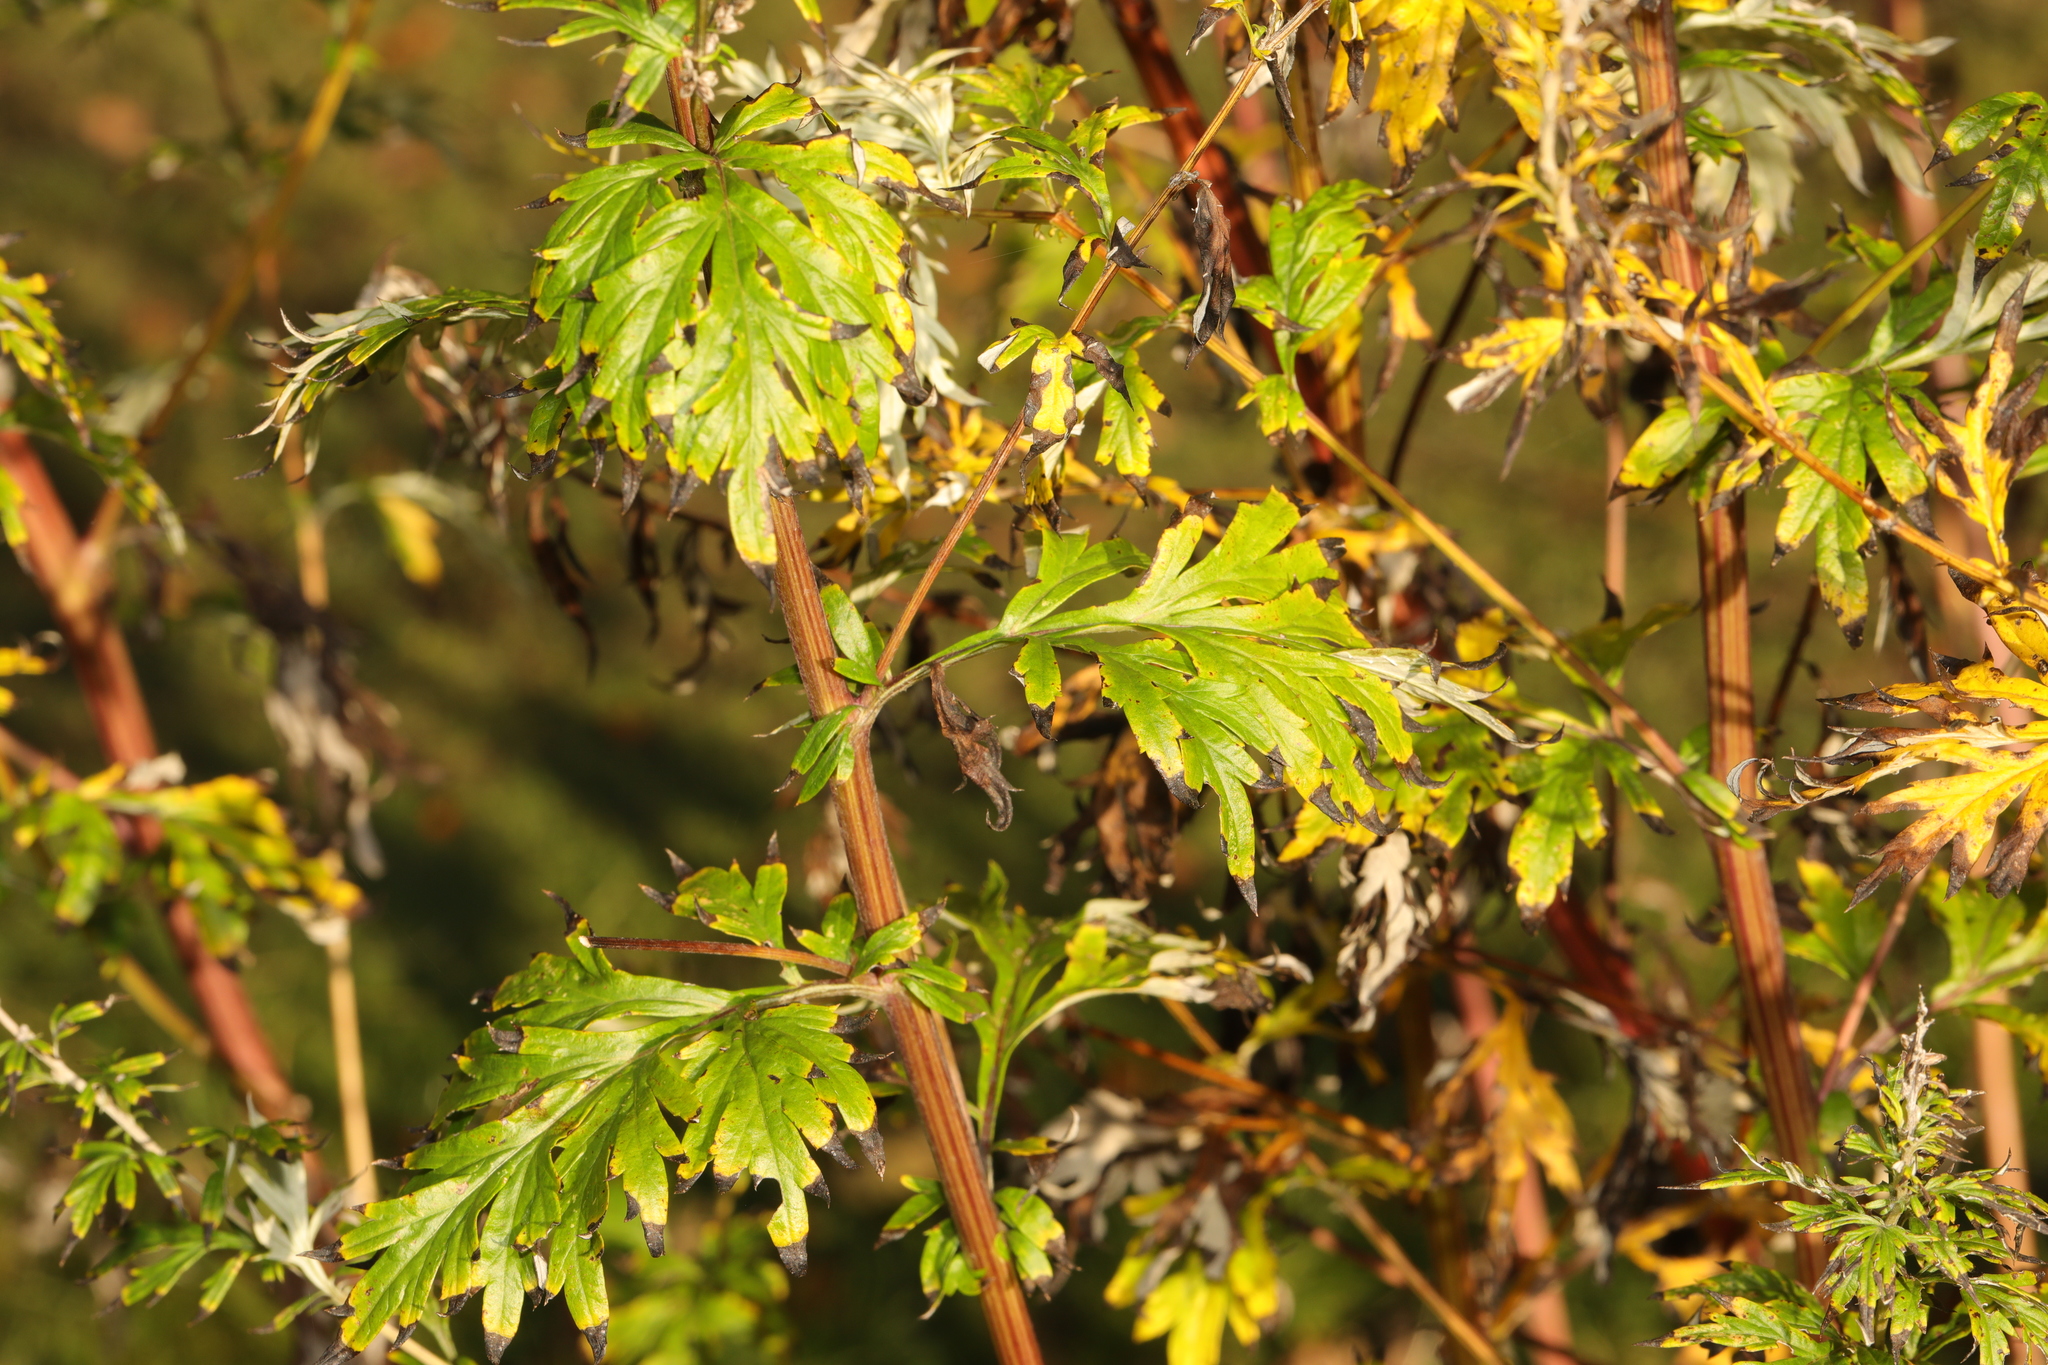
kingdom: Plantae
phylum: Tracheophyta
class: Magnoliopsida
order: Asterales
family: Asteraceae
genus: Artemisia
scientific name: Artemisia vulgaris
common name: Mugwort
